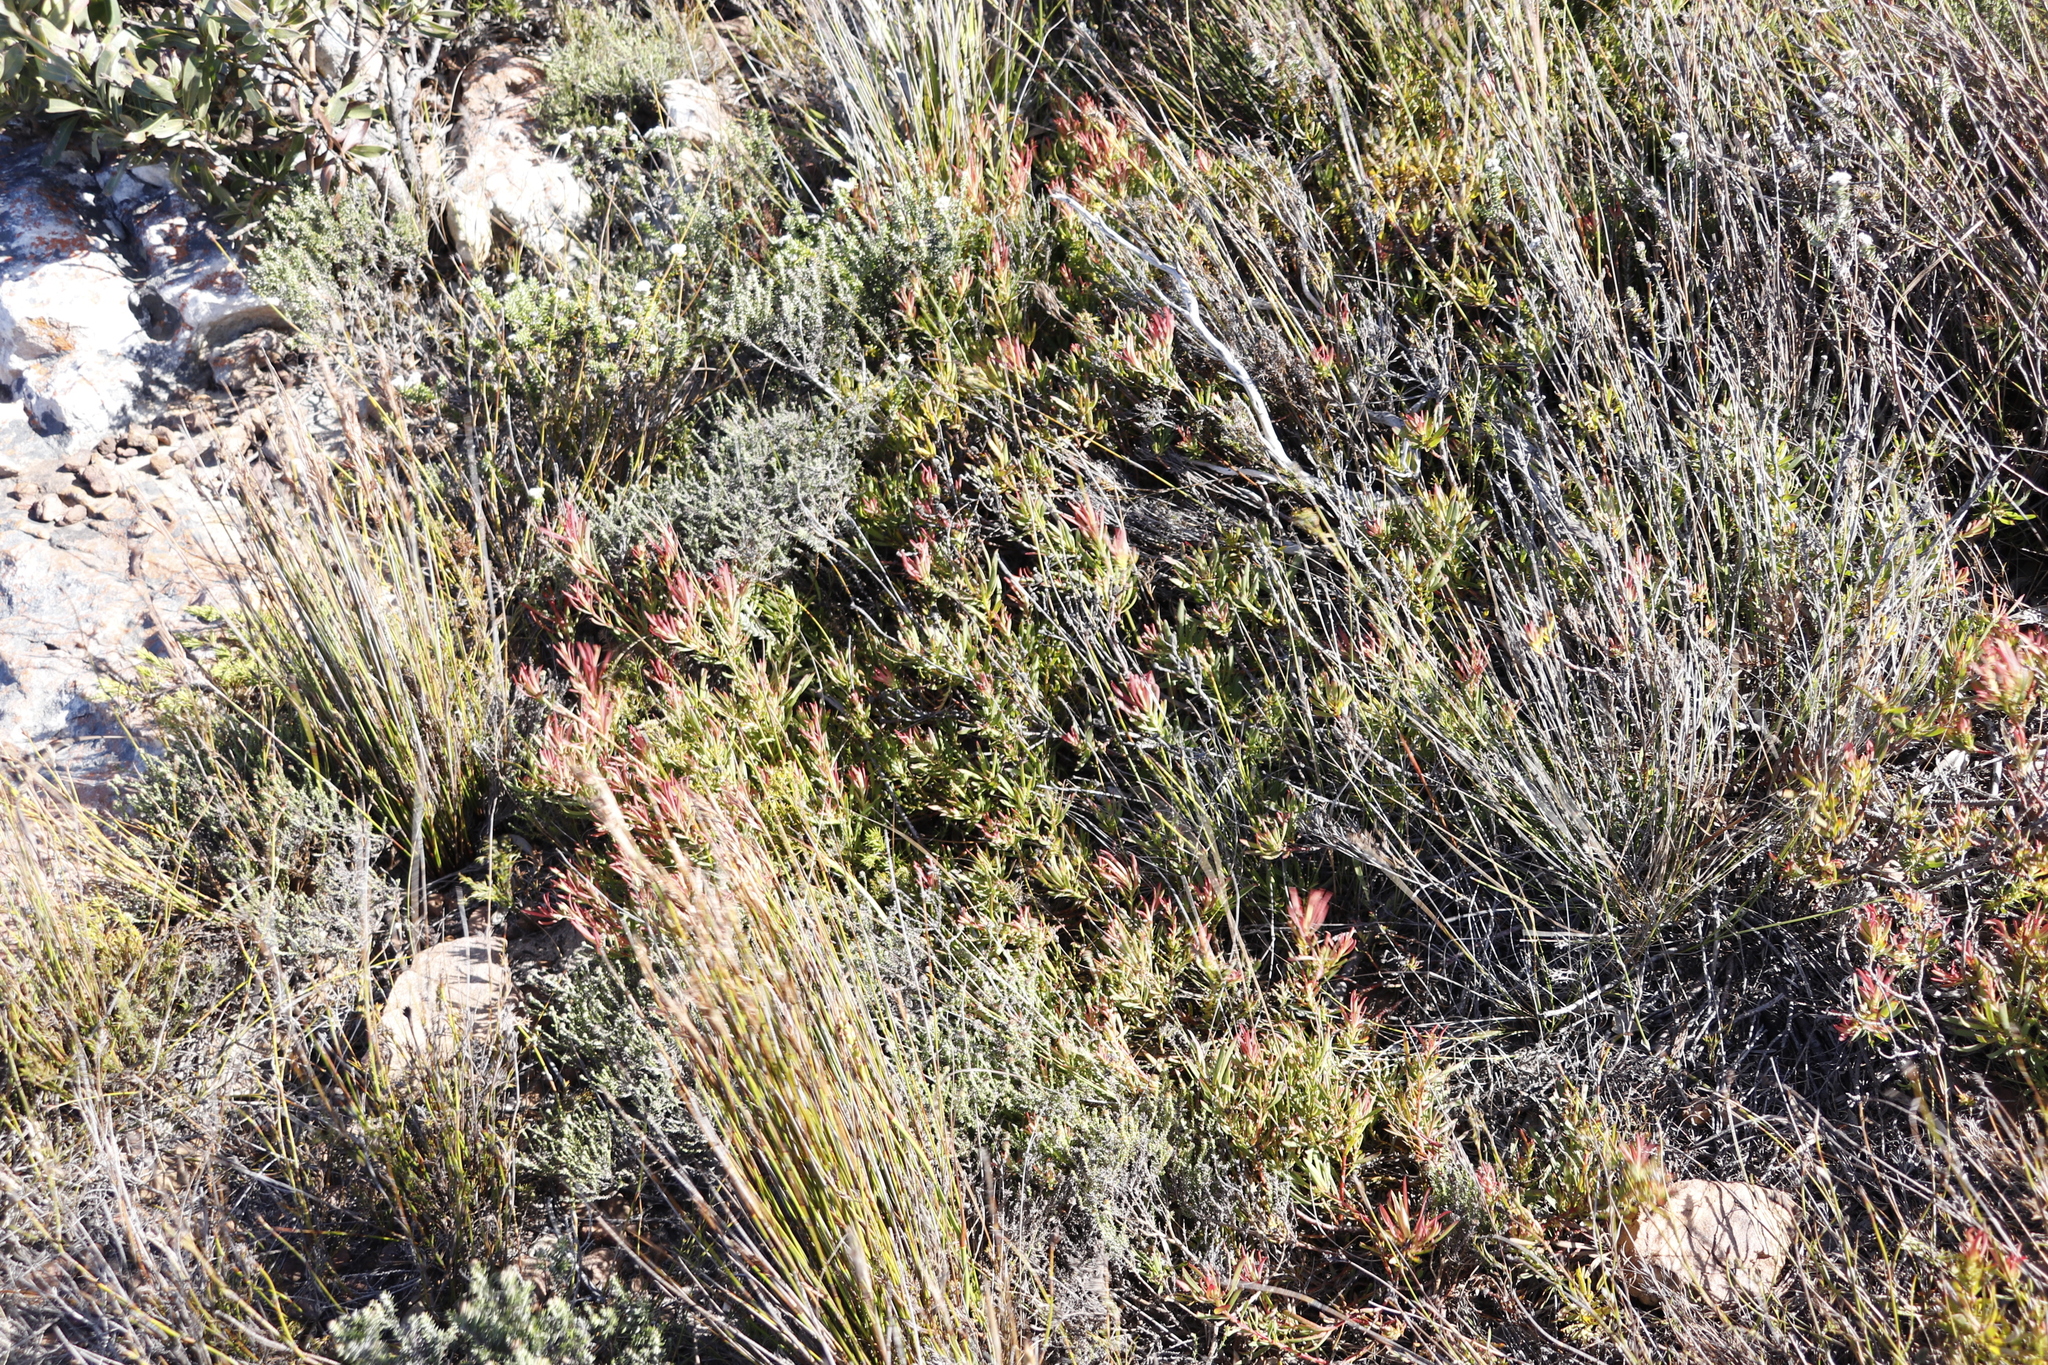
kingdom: Plantae
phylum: Tracheophyta
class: Magnoliopsida
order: Proteales
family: Proteaceae
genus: Leucadendron
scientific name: Leucadendron salignum
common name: Common sunshine conebush
